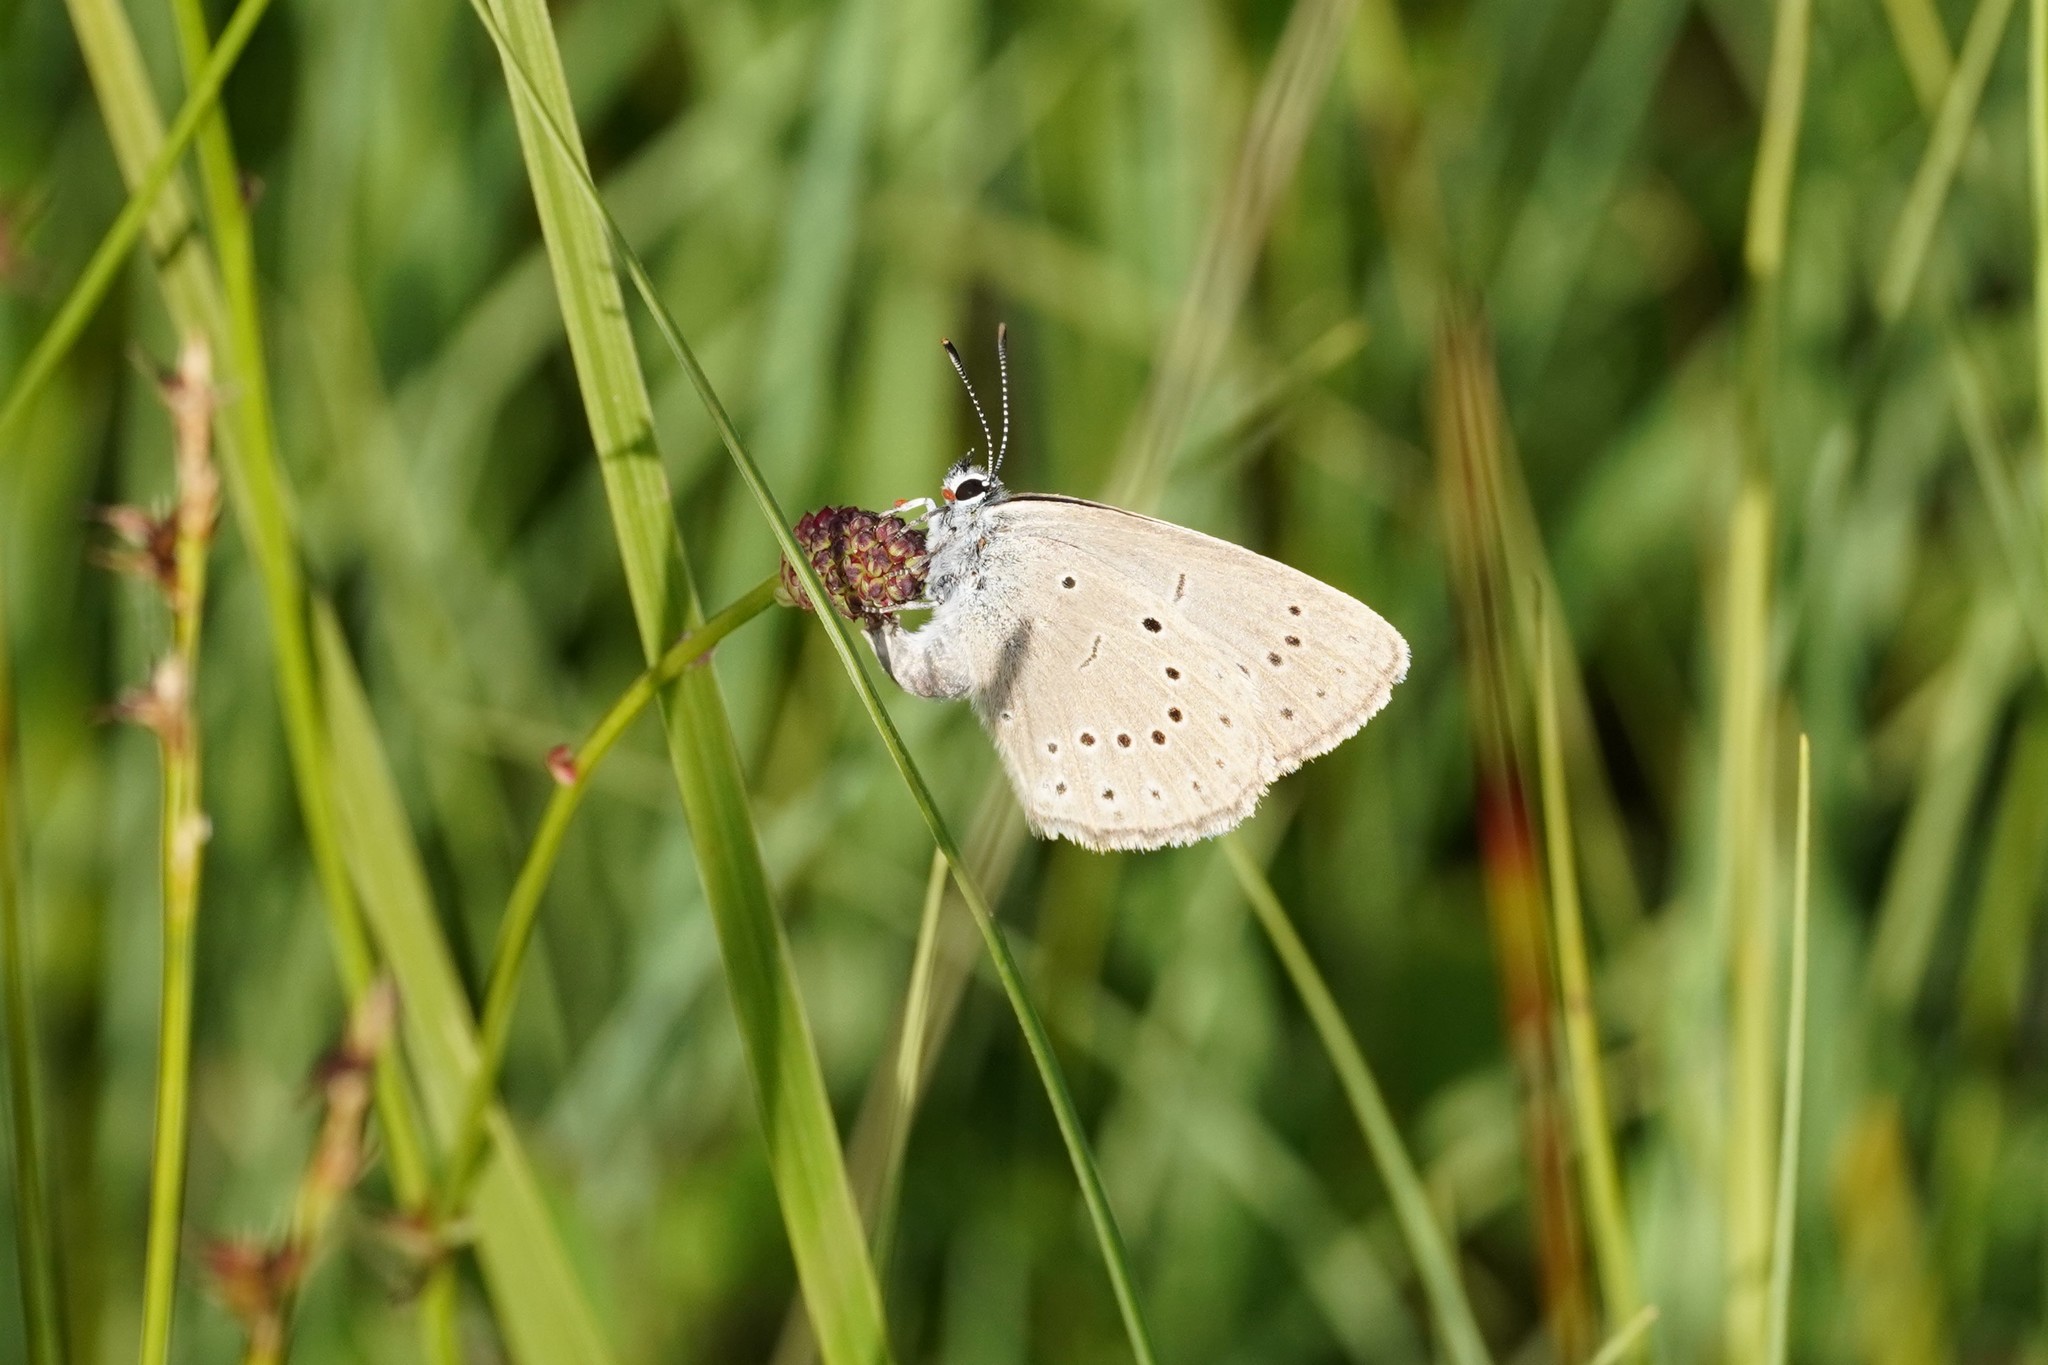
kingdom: Animalia
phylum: Arthropoda
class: Insecta
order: Lepidoptera
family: Lycaenidae
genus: Phengaris
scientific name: Phengaris teleius
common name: Scarce large blue
